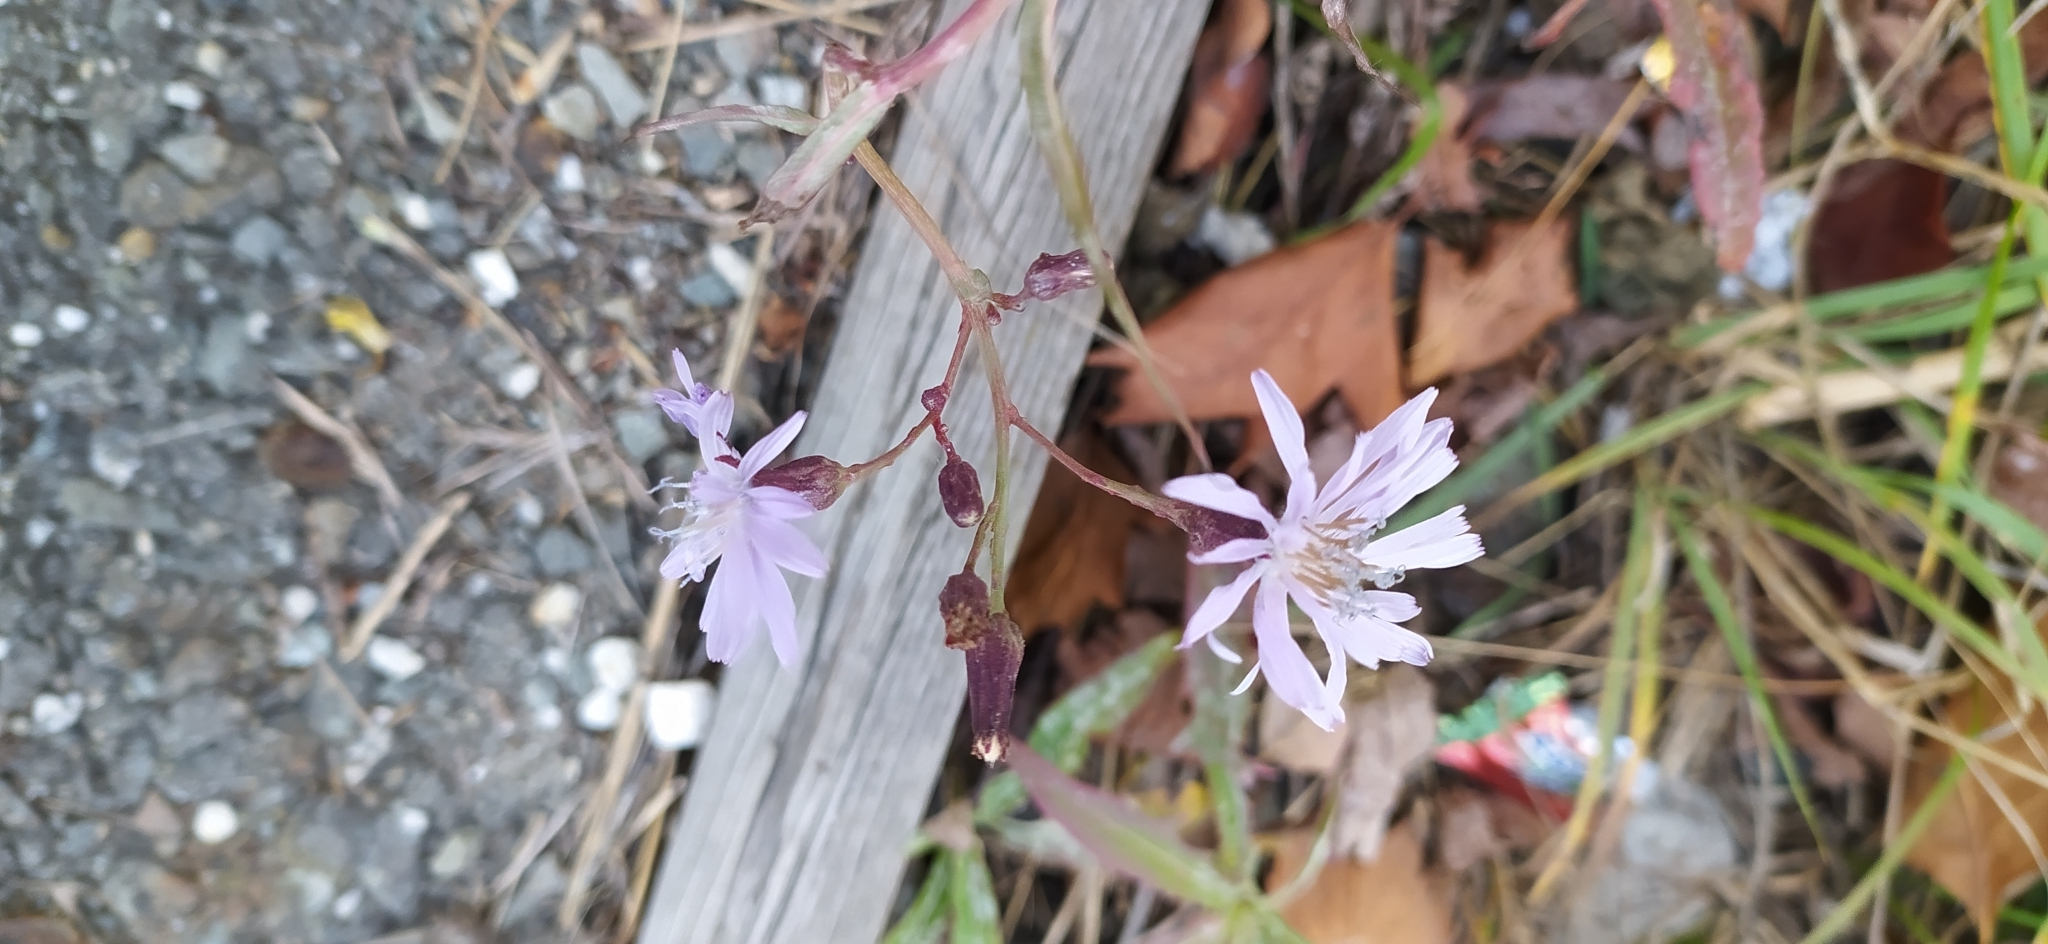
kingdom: Plantae
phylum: Tracheophyta
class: Magnoliopsida
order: Asterales
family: Asteraceae
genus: Lactuca
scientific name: Lactuca sibirica
